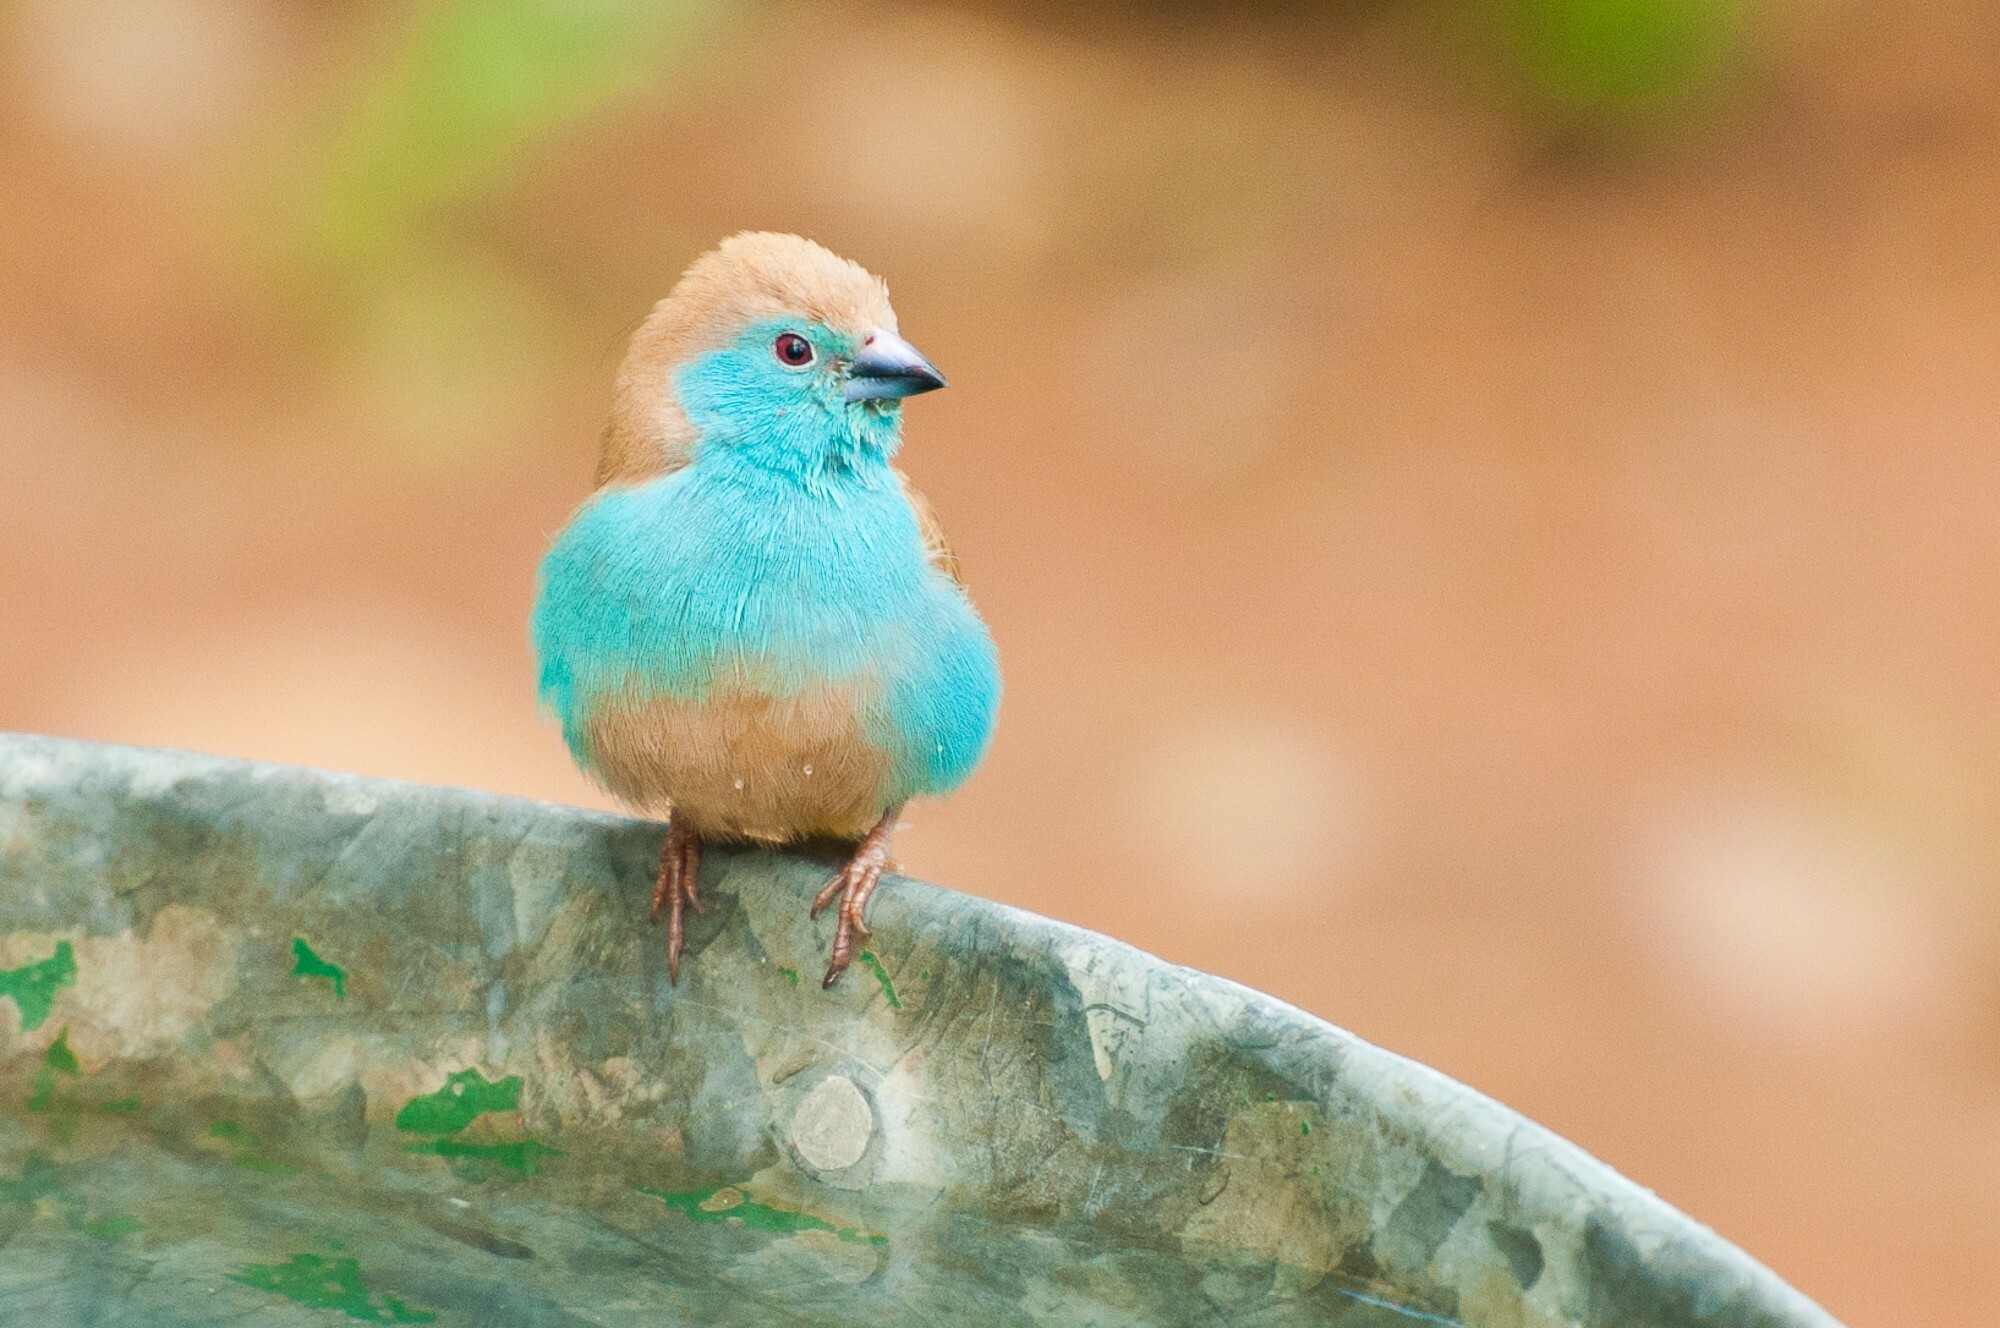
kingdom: Animalia
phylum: Chordata
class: Aves
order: Passeriformes
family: Estrildidae
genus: Uraeginthus
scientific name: Uraeginthus angolensis
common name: Blue waxbill
